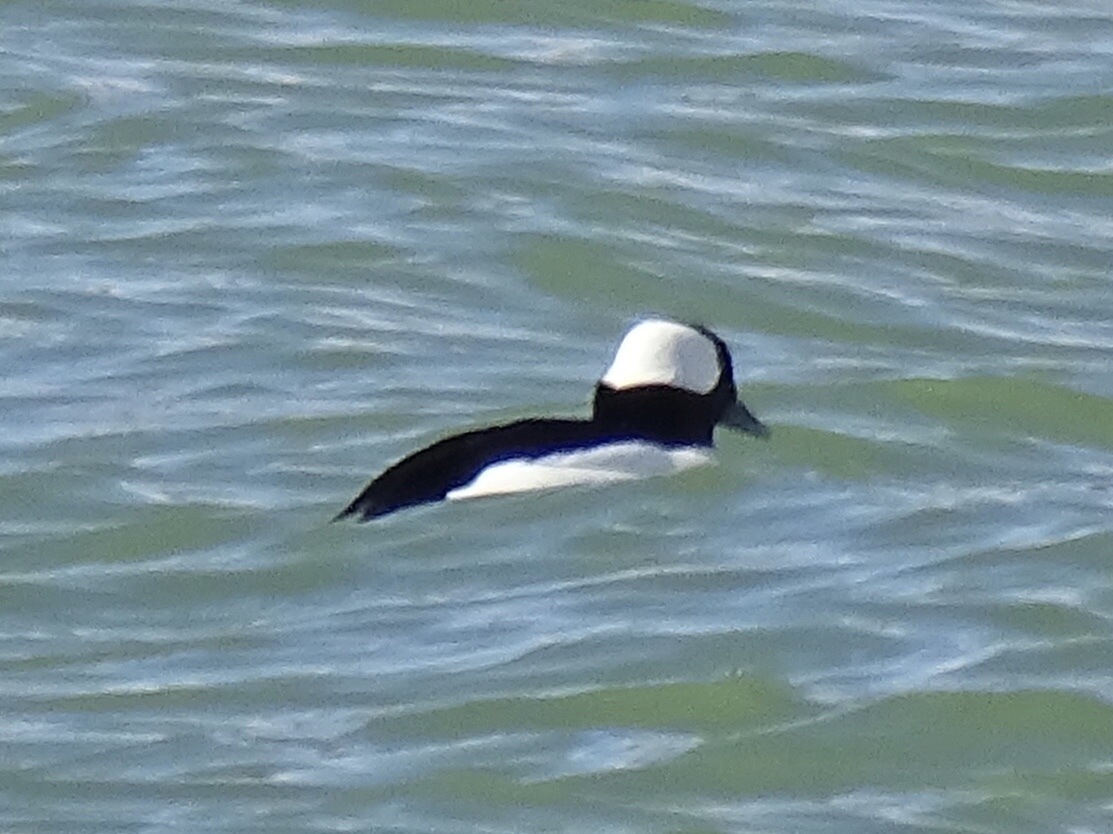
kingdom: Animalia
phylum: Chordata
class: Aves
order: Anseriformes
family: Anatidae
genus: Bucephala
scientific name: Bucephala albeola
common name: Bufflehead
